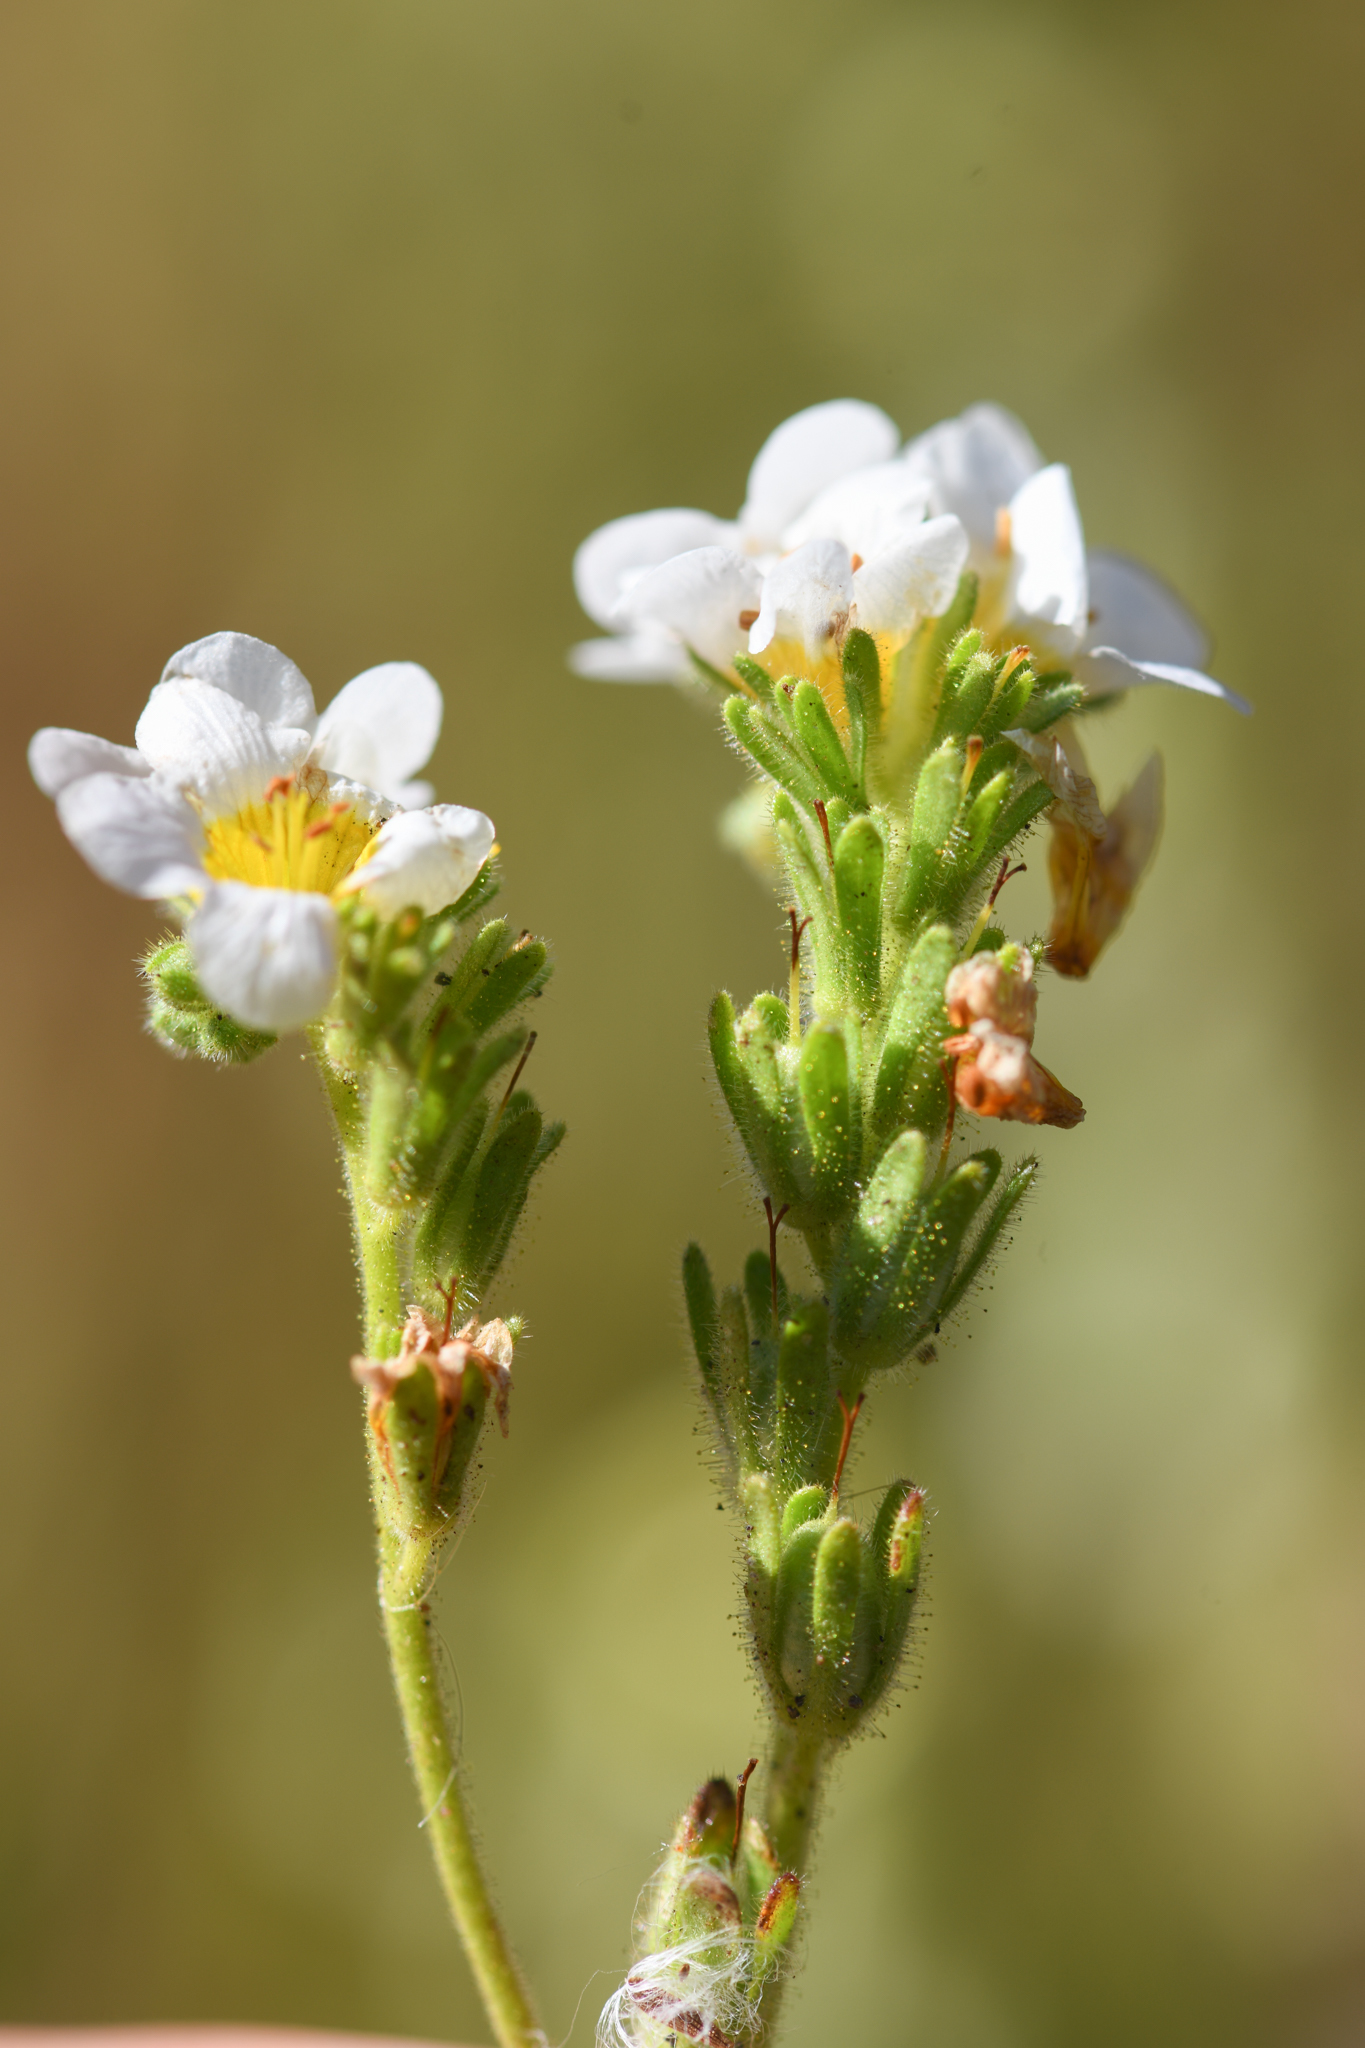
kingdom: Plantae
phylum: Tracheophyta
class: Magnoliopsida
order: Boraginales
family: Hydrophyllaceae
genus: Phacelia
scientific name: Phacelia brachyloba
